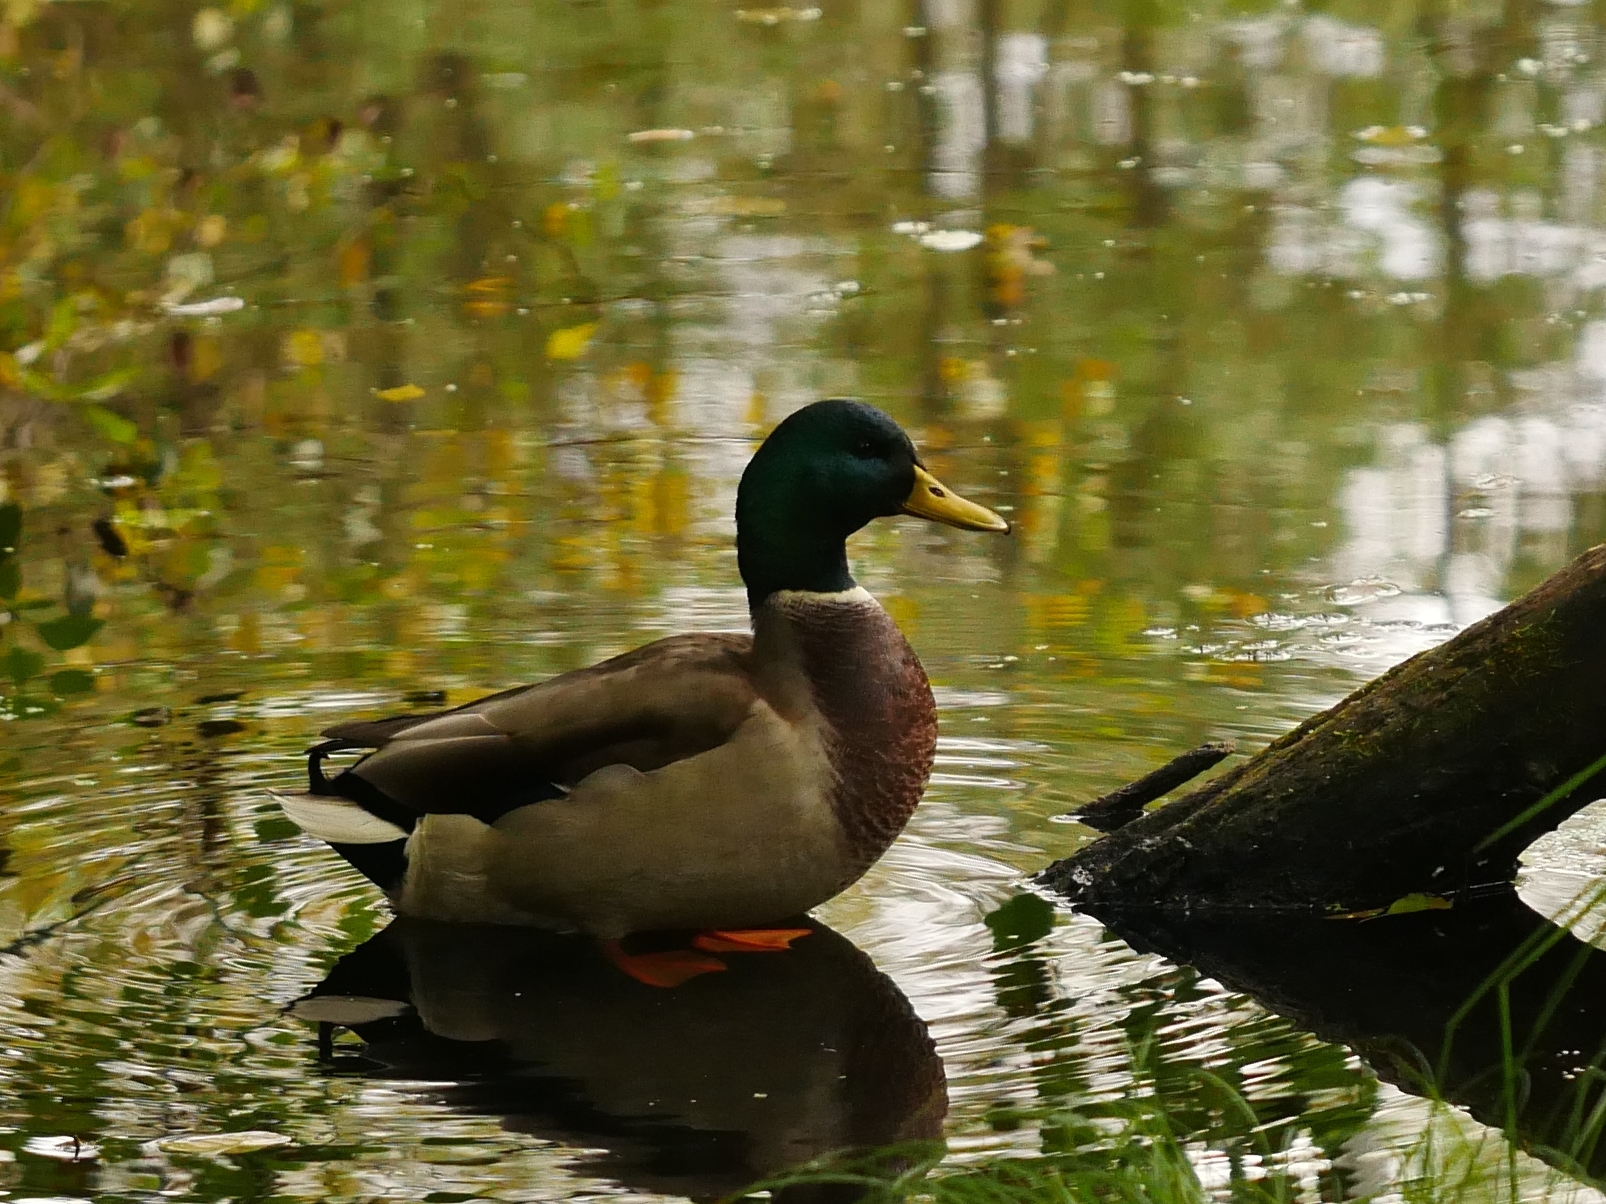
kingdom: Animalia
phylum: Chordata
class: Aves
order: Anseriformes
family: Anatidae
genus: Anas
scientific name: Anas platyrhynchos
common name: Mallard
